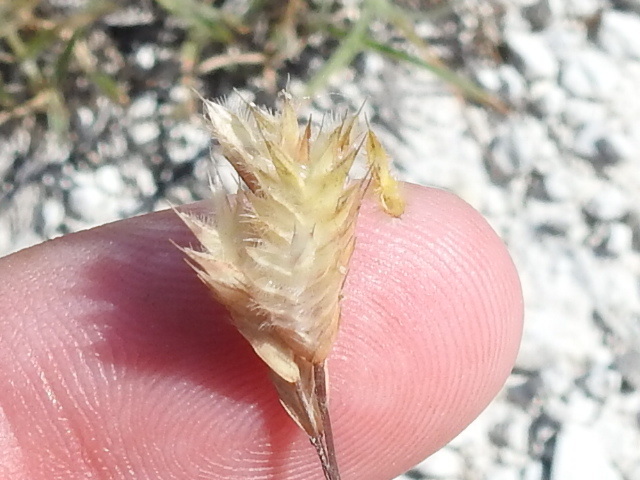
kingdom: Plantae
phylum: Tracheophyta
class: Liliopsida
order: Poales
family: Poaceae
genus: Erioneuron
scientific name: Erioneuron pilosum
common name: Hairy woolly grass
